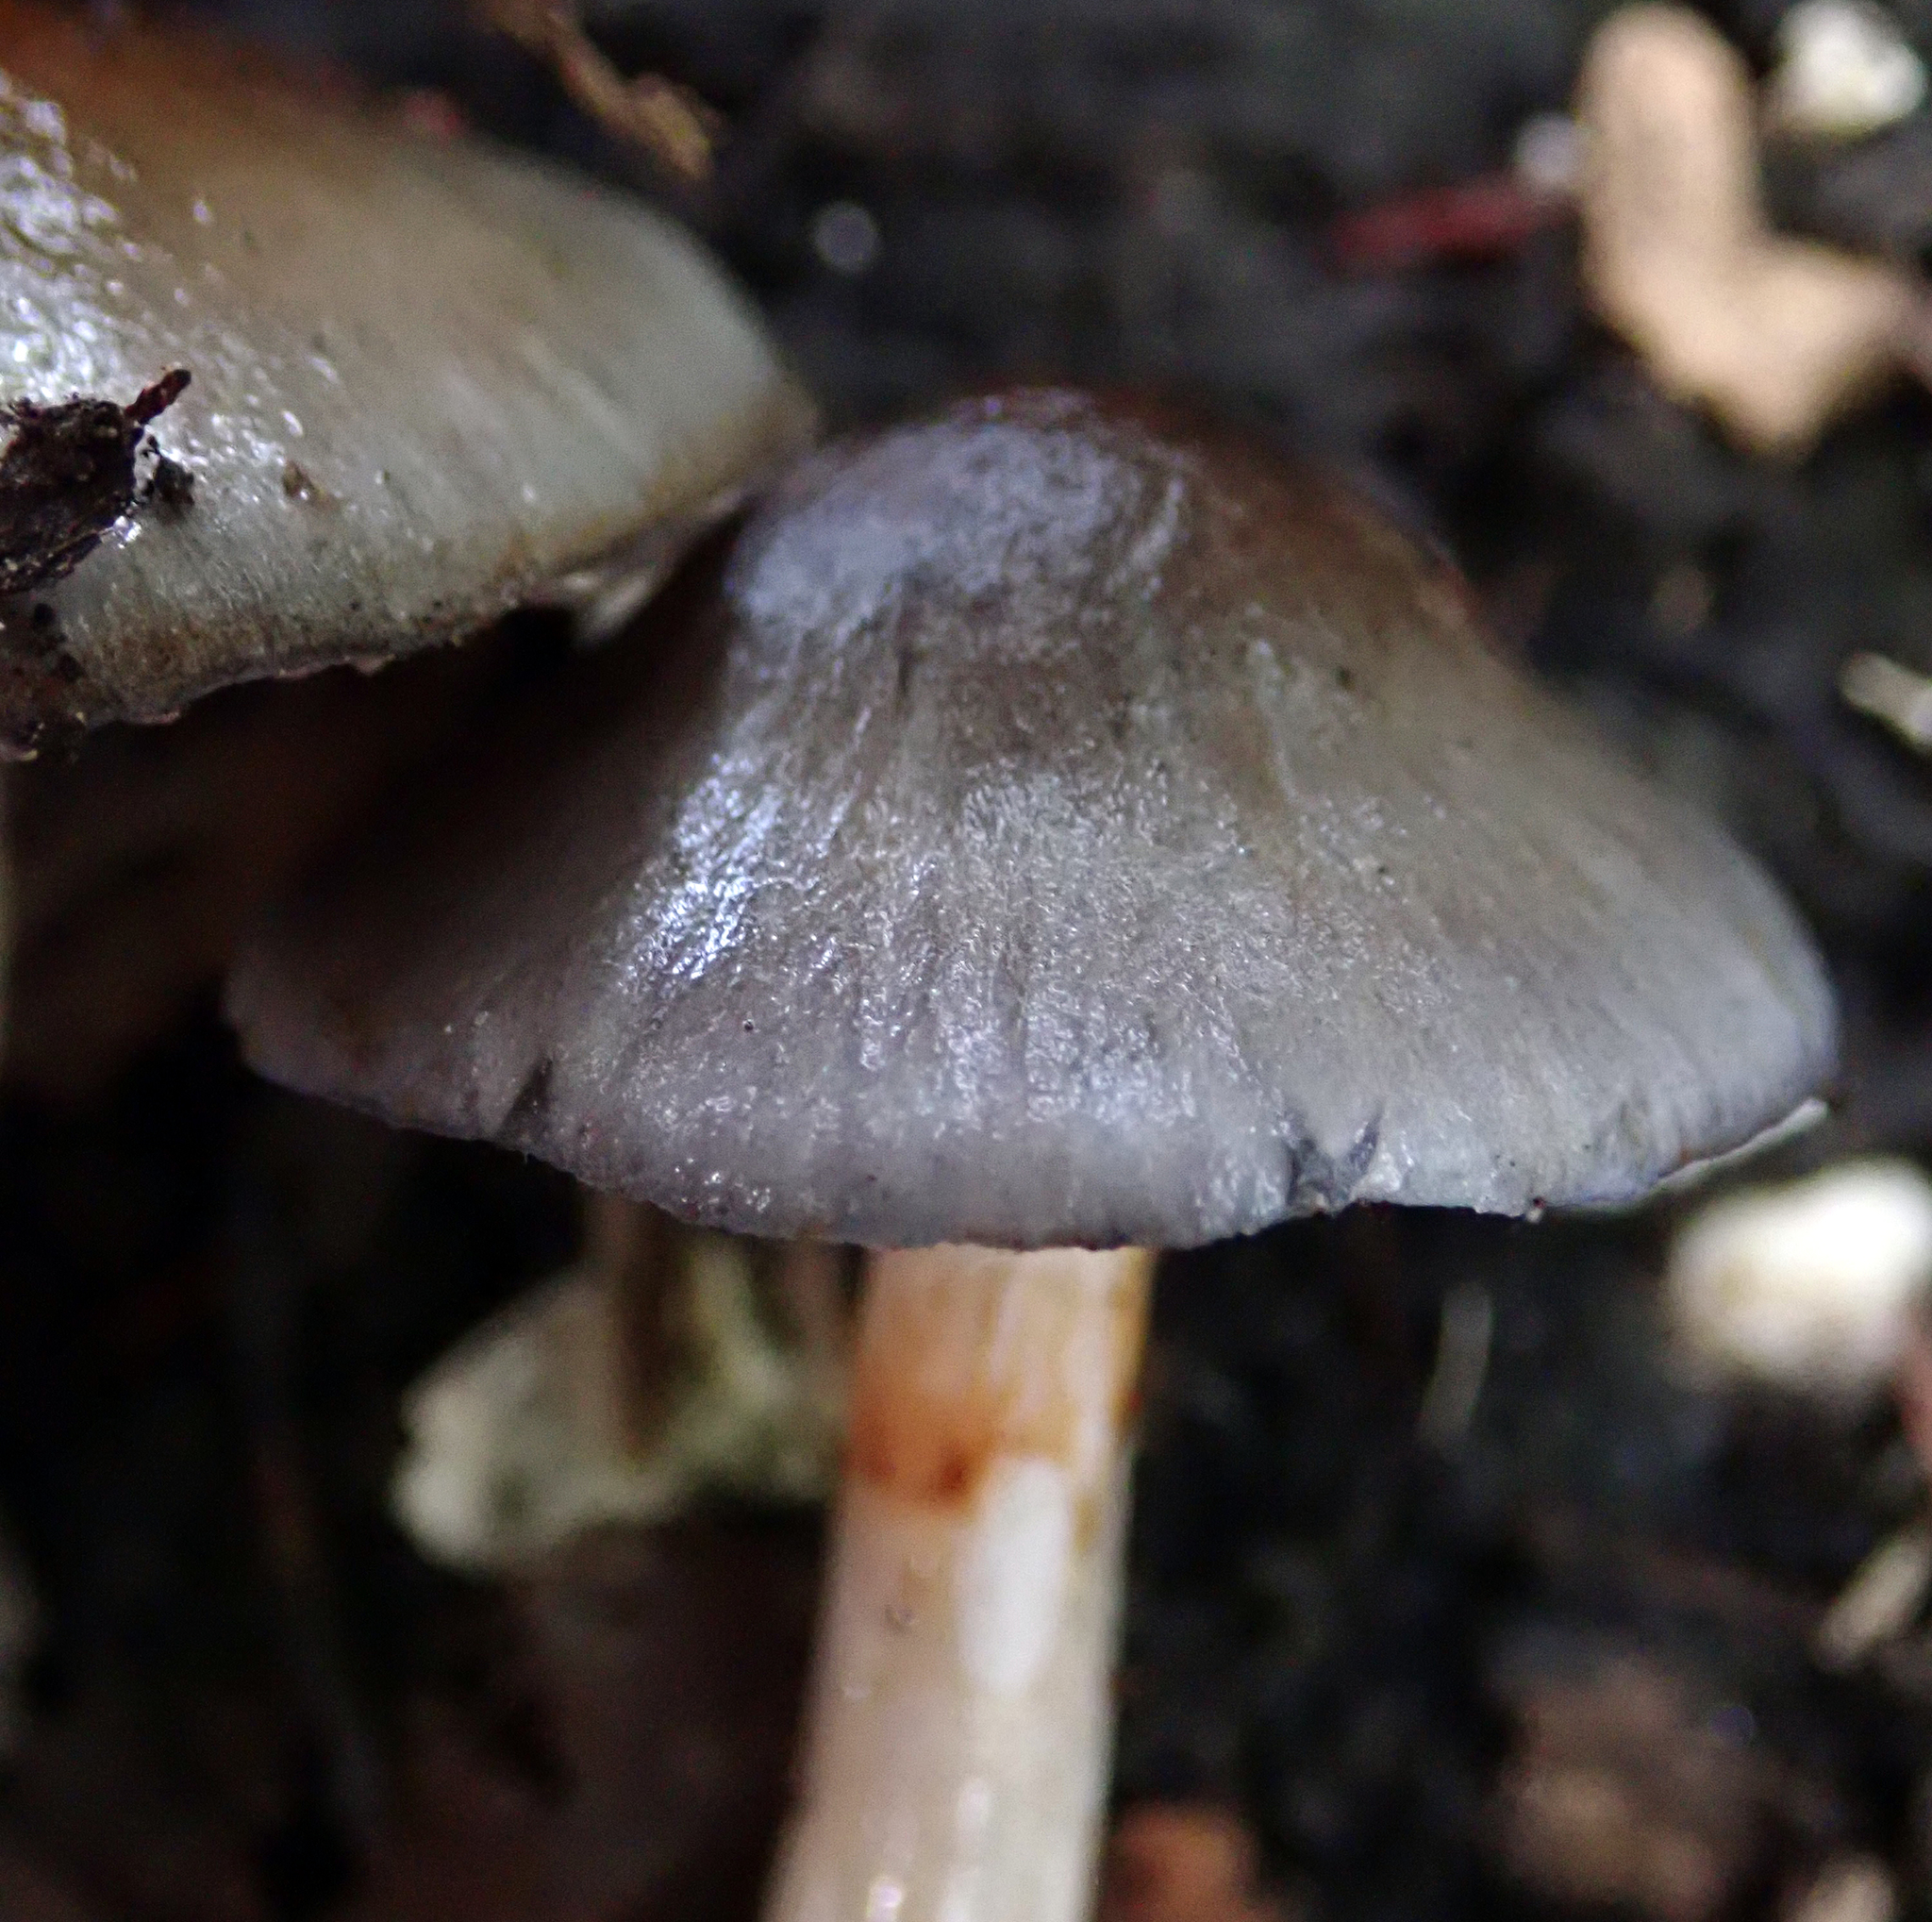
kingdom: Fungi
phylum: Basidiomycota
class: Agaricomycetes
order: Agaricales
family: Cortinariaceae
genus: Cortinarius
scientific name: Cortinarius rotundisporus
